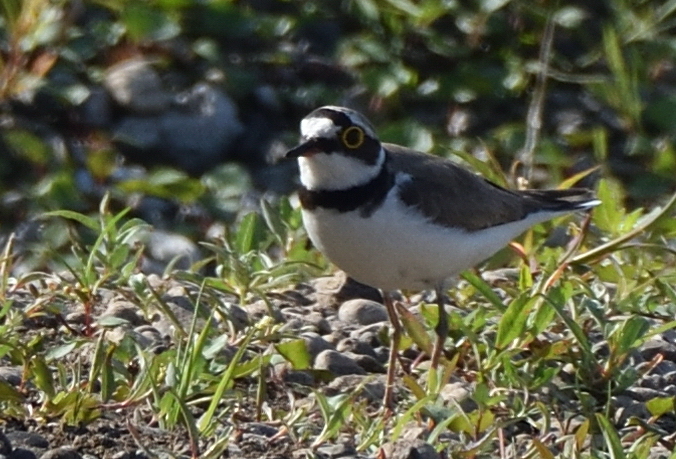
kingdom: Animalia
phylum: Chordata
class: Aves
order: Charadriiformes
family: Charadriidae
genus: Charadrius
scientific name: Charadrius dubius
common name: Little ringed plover
